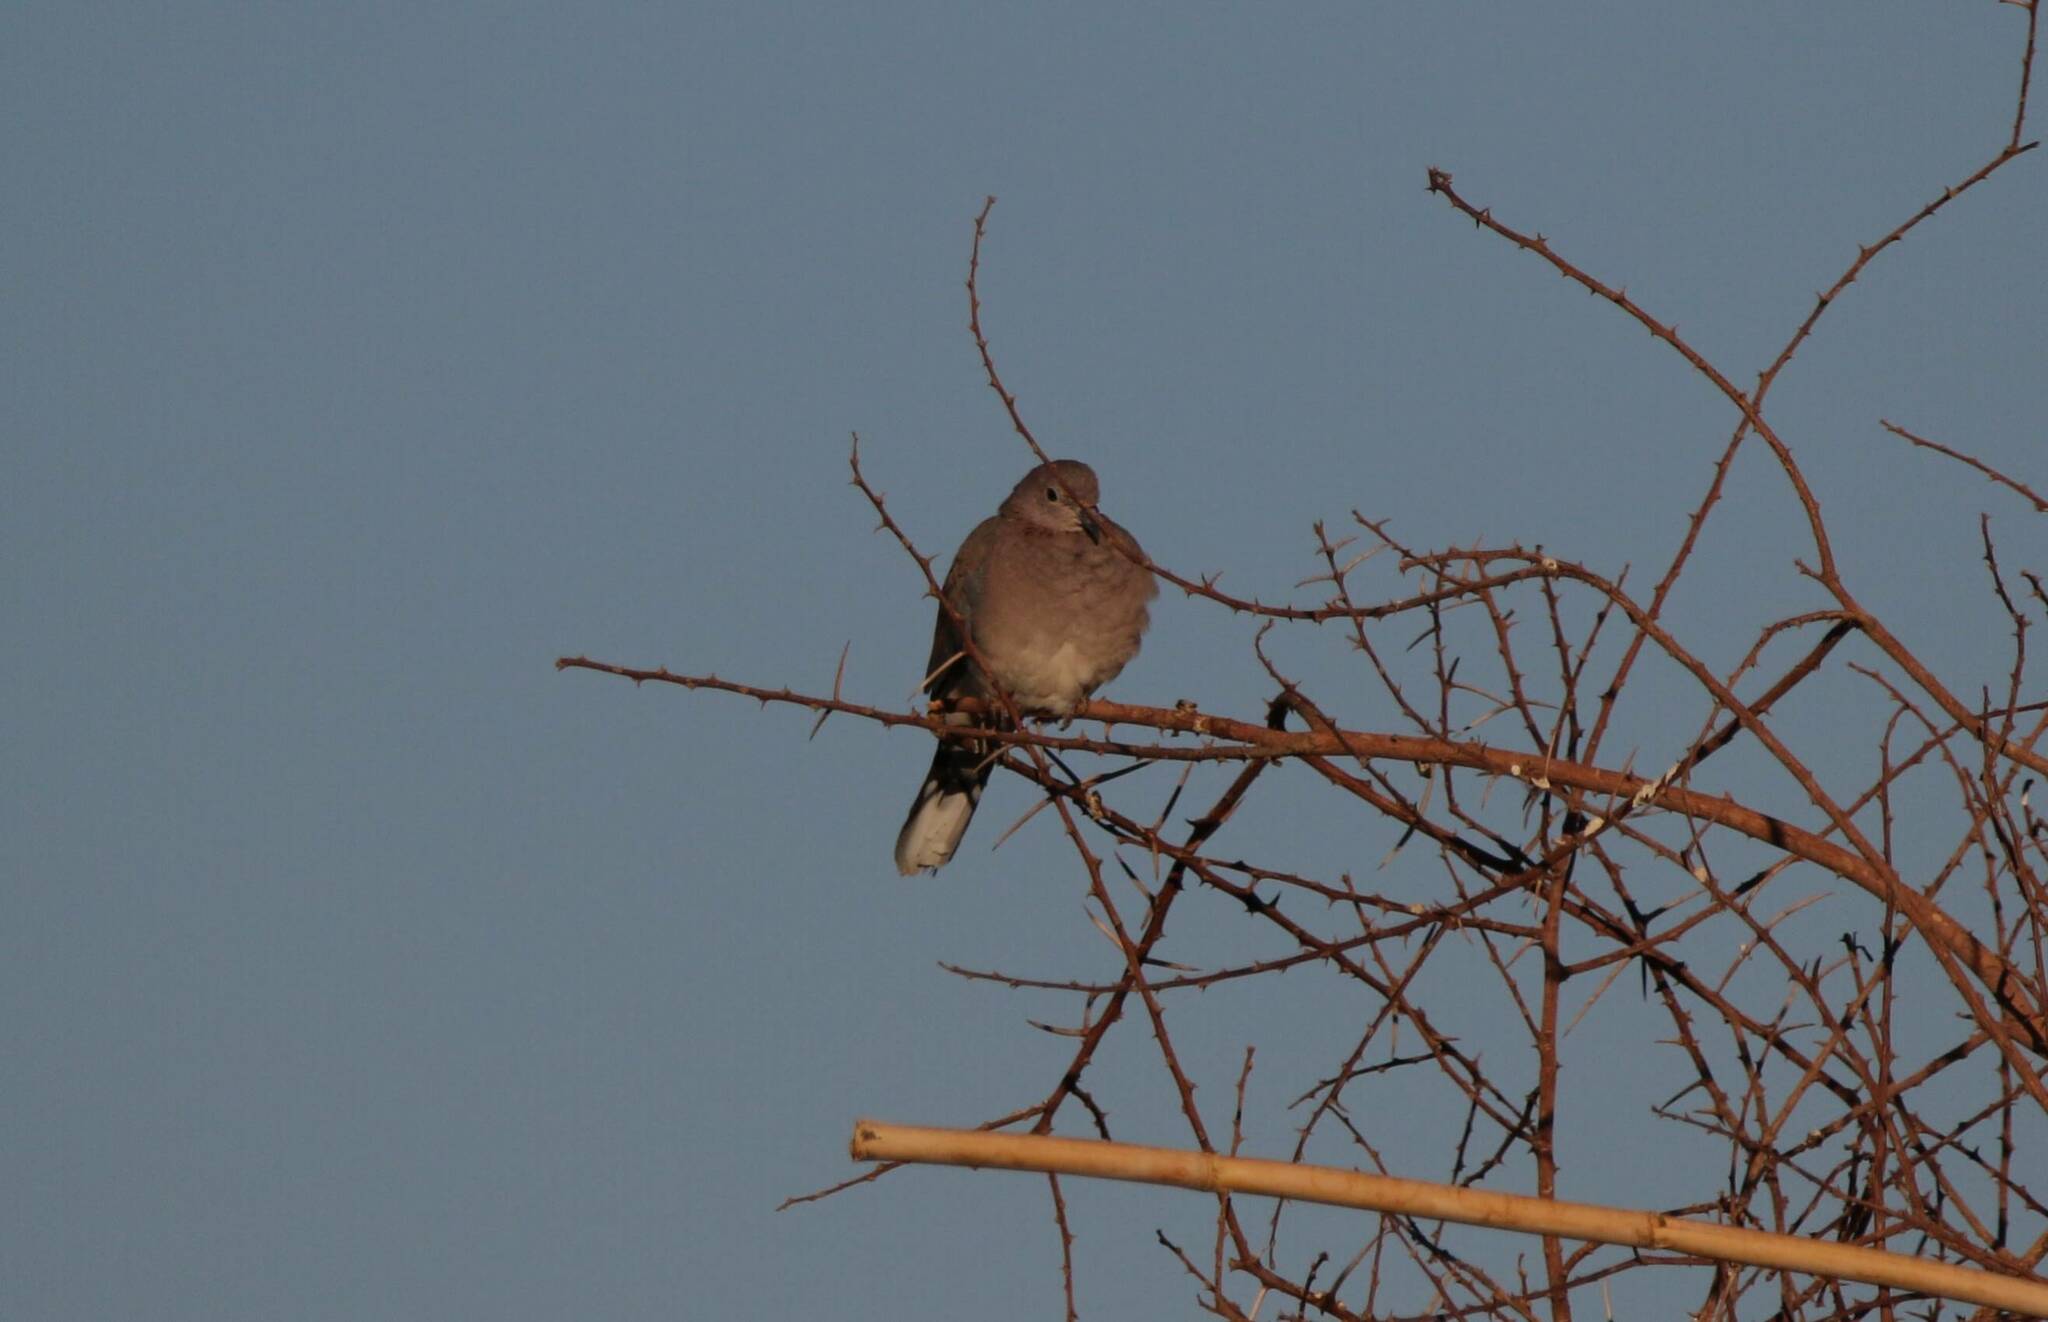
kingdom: Animalia
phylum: Chordata
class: Aves
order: Columbiformes
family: Columbidae
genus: Spilopelia
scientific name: Spilopelia senegalensis
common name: Laughing dove
